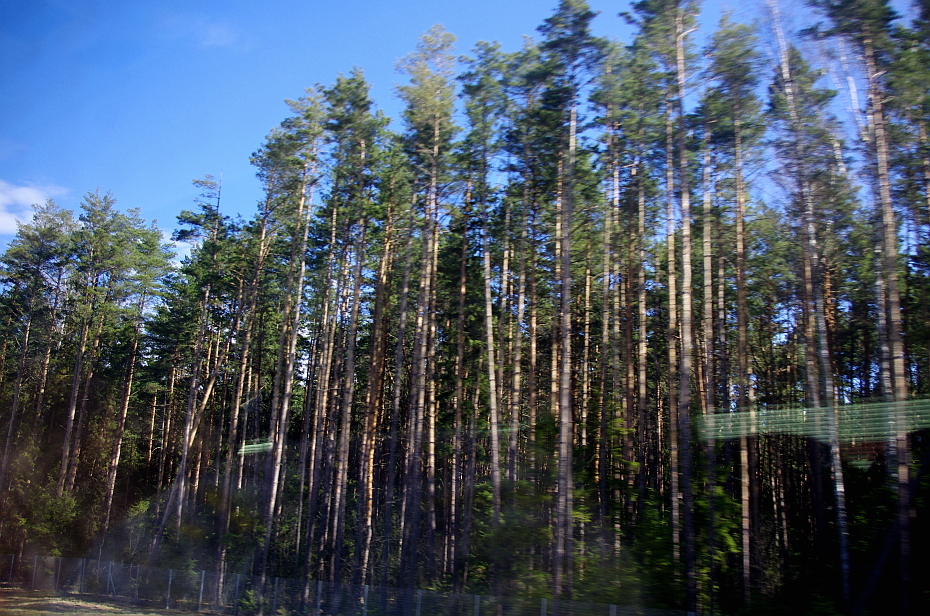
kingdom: Plantae
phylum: Tracheophyta
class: Pinopsida
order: Pinales
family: Pinaceae
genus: Pinus
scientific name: Pinus sylvestris
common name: Scots pine
